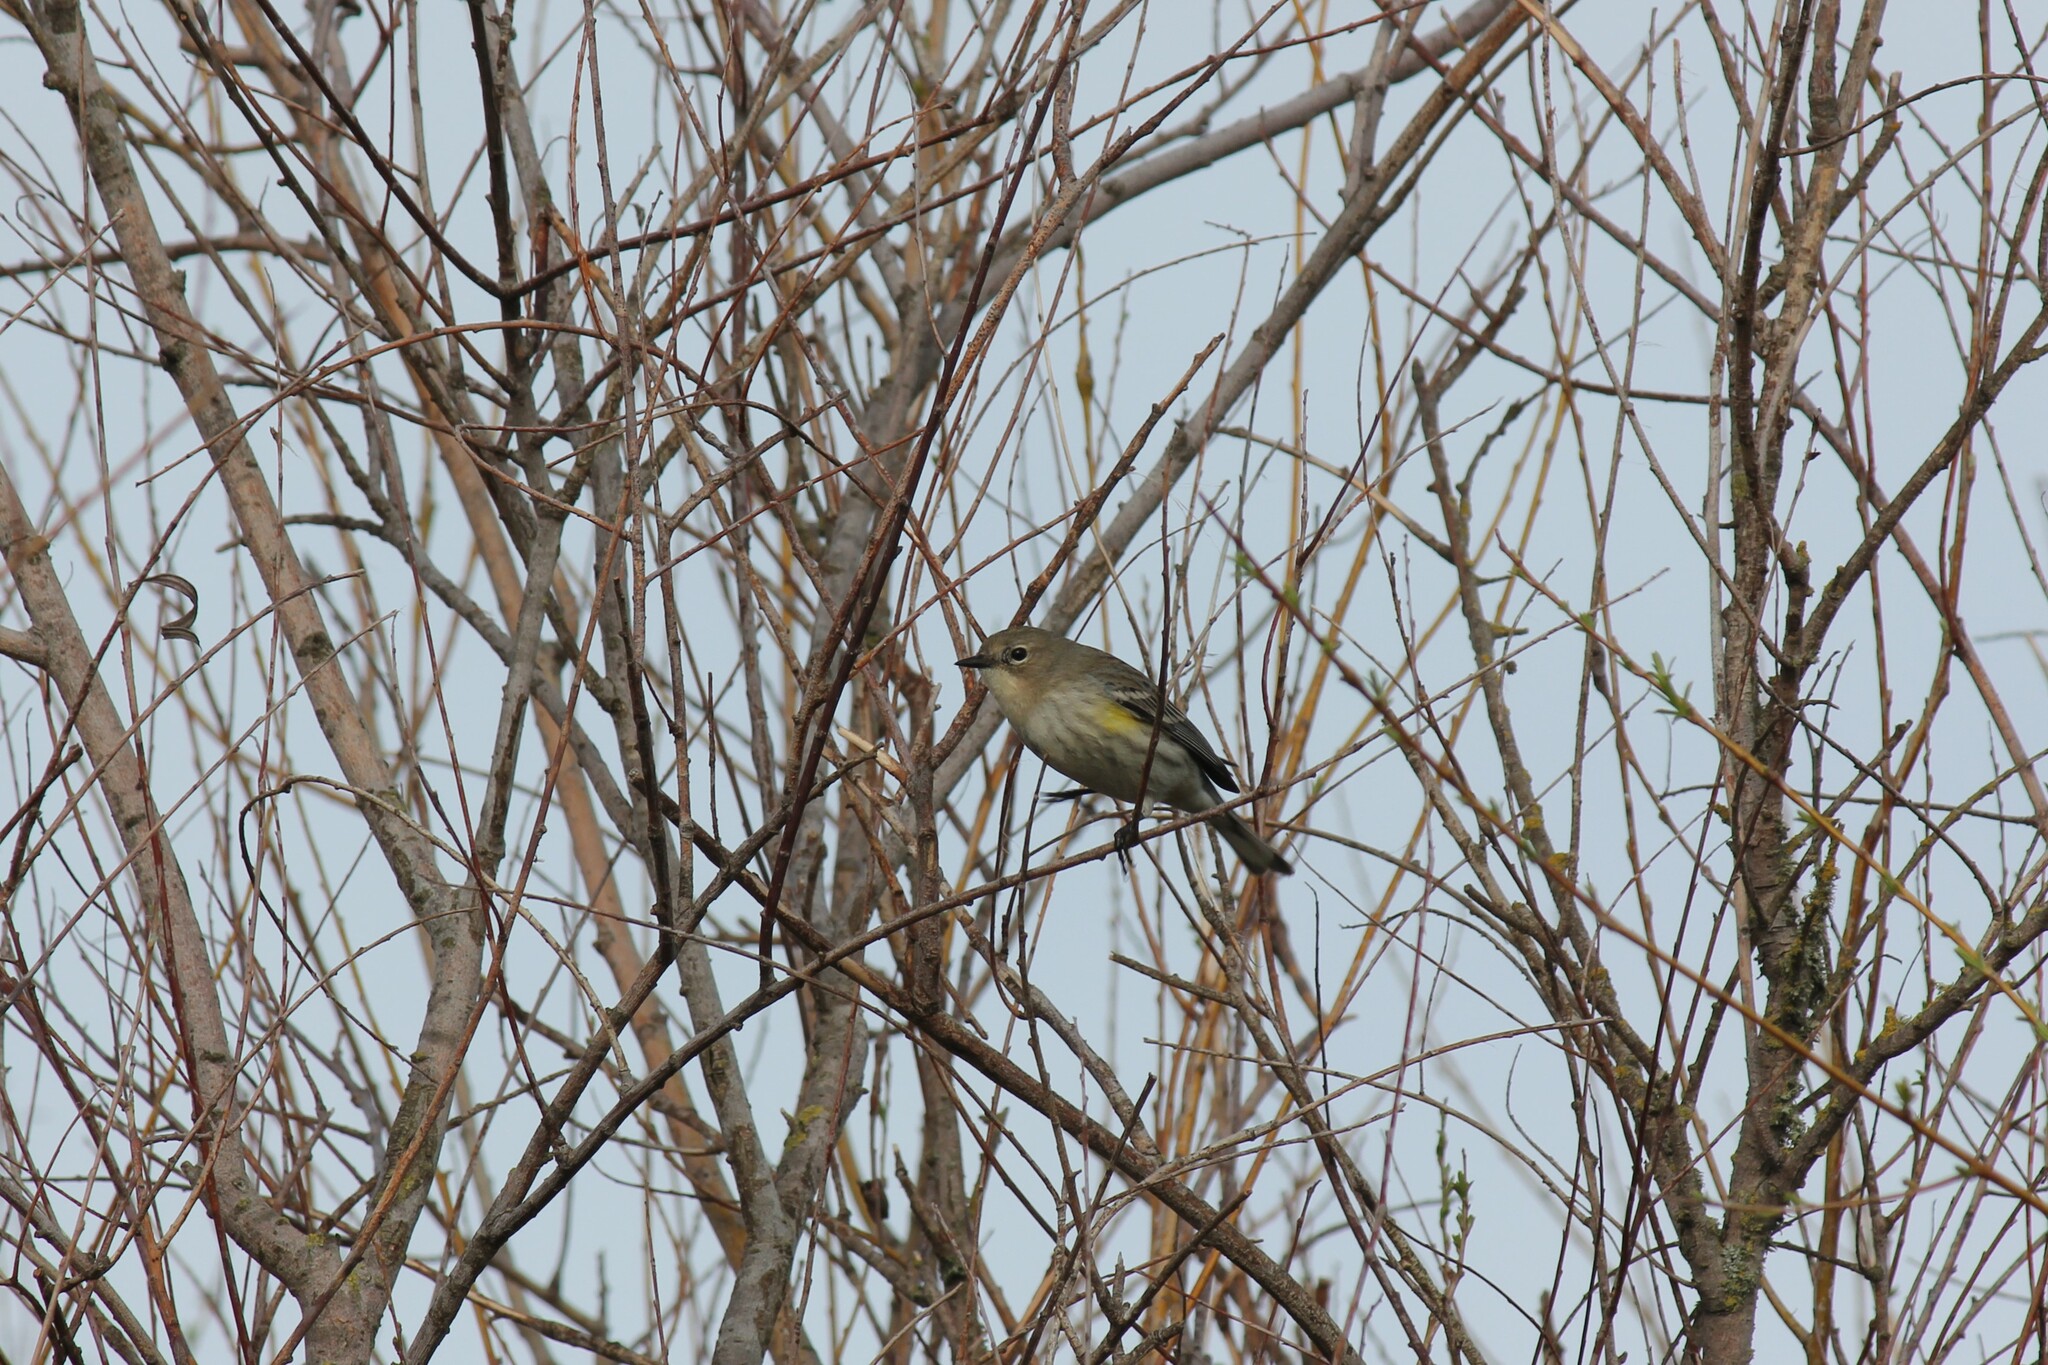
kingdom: Animalia
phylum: Chordata
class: Aves
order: Passeriformes
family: Parulidae
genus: Setophaga
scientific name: Setophaga coronata
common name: Myrtle warbler
